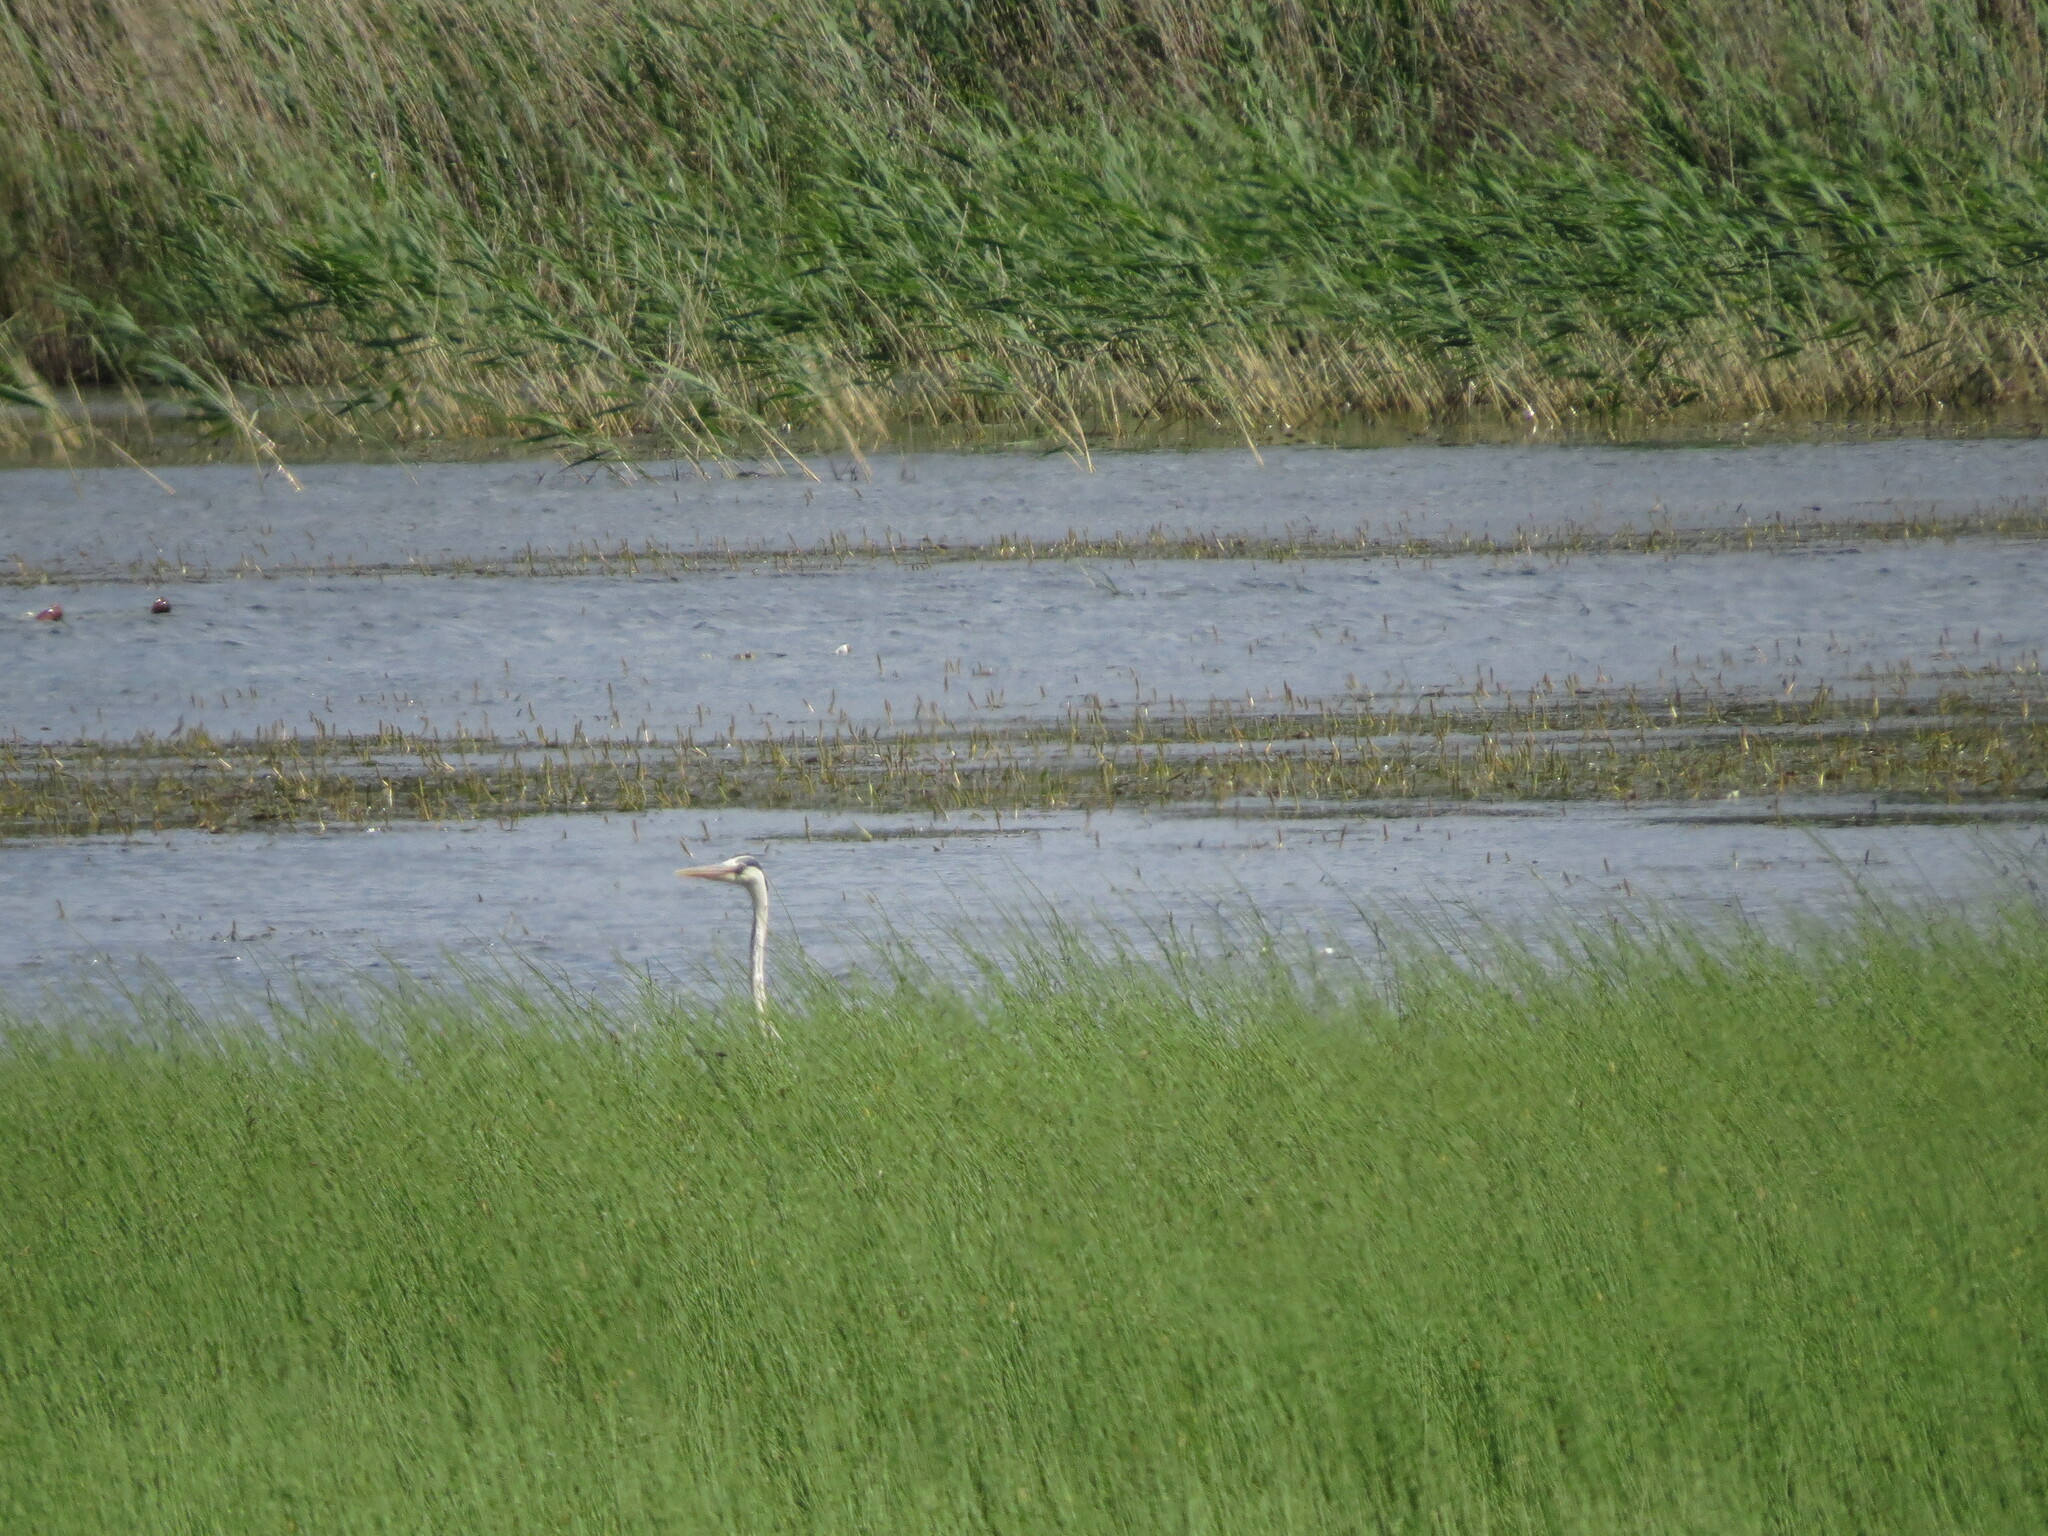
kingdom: Animalia
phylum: Chordata
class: Aves
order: Pelecaniformes
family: Ardeidae
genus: Ardea
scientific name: Ardea cinerea
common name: Grey heron
